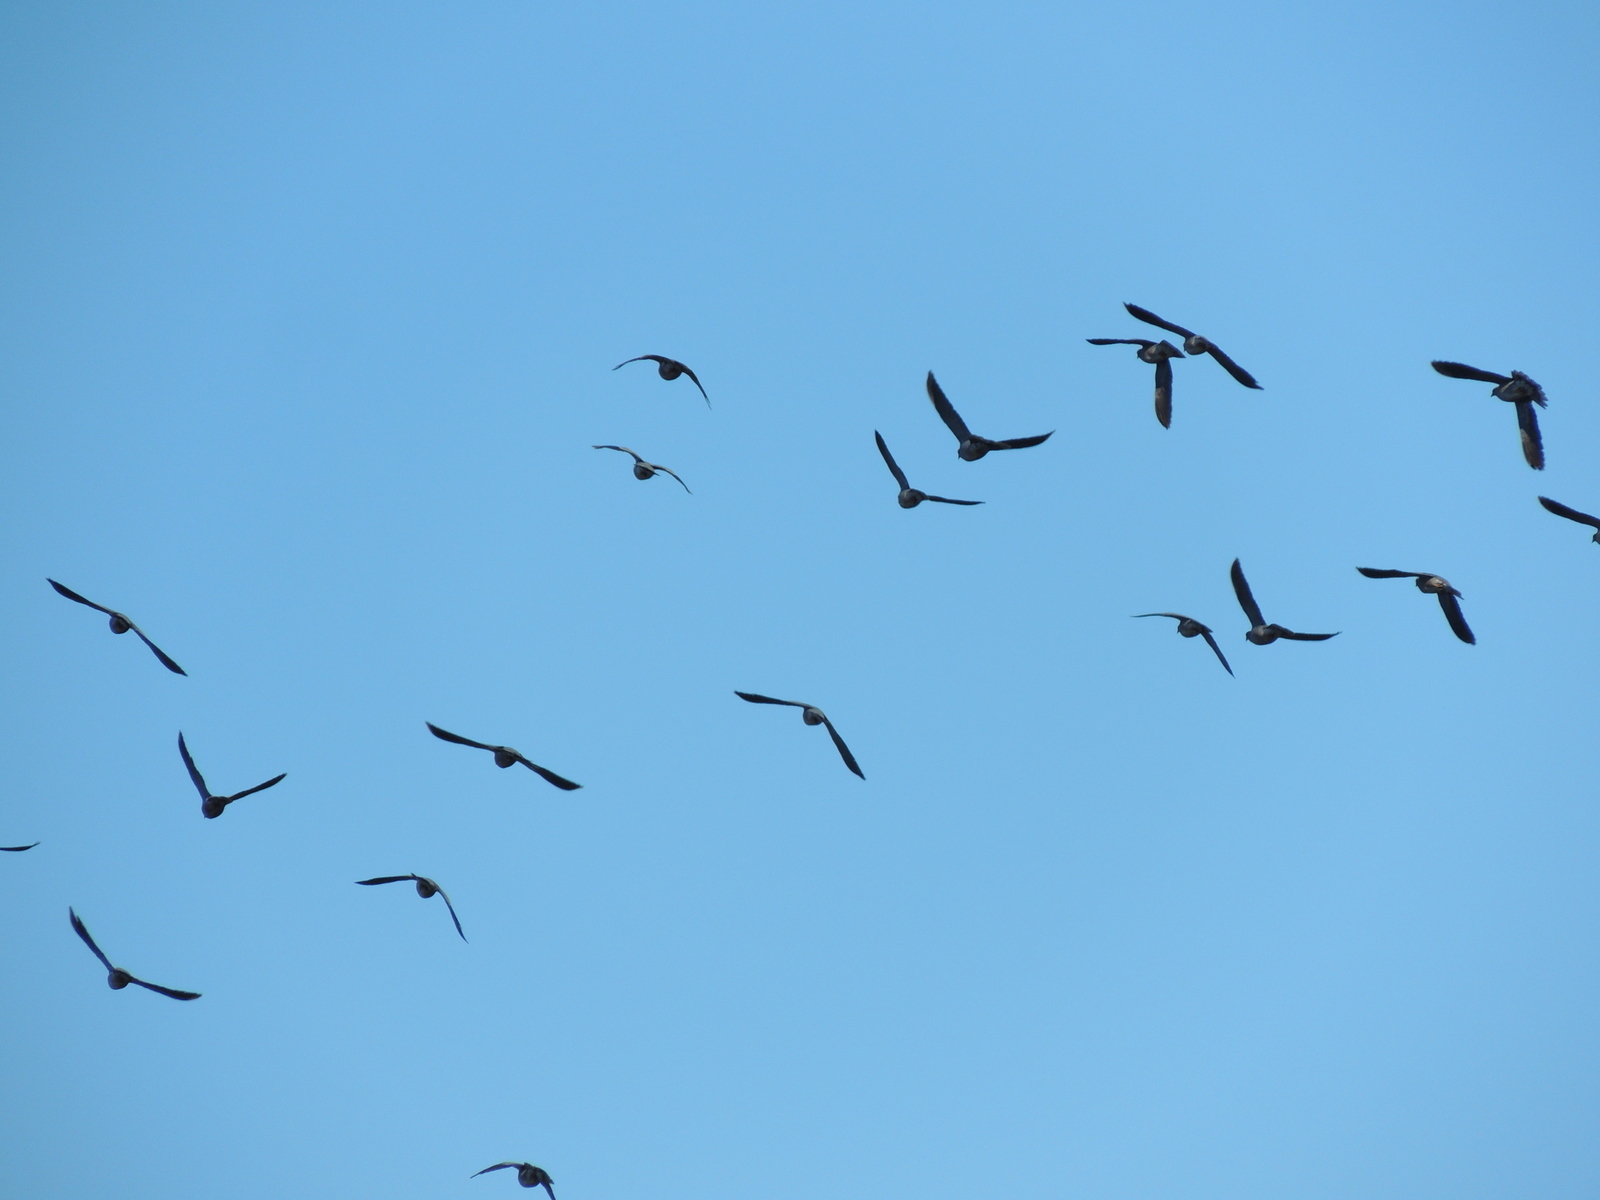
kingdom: Animalia
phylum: Chordata
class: Aves
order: Columbiformes
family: Columbidae
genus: Columba
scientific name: Columba livia
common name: Rock pigeon
